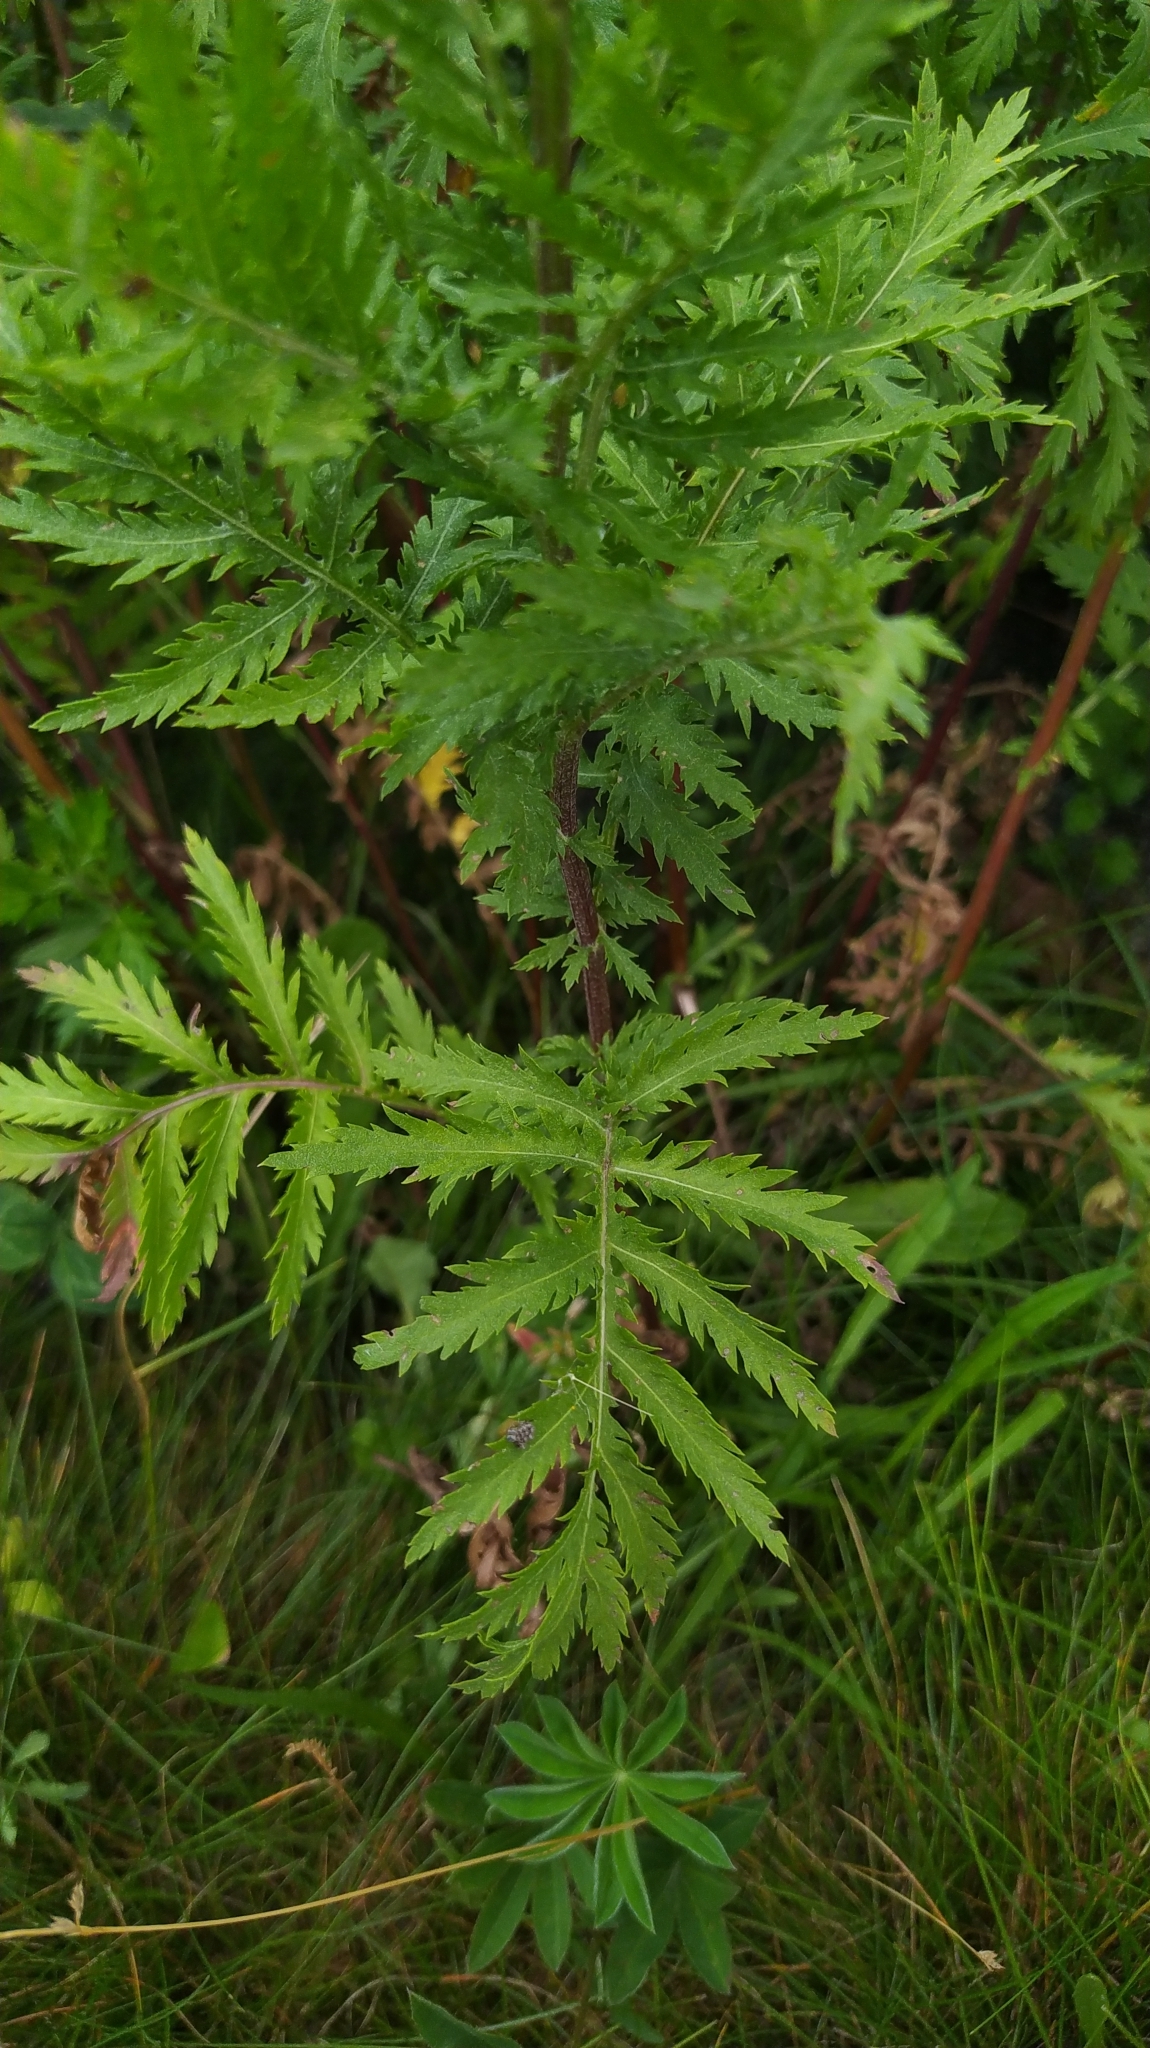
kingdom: Plantae
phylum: Tracheophyta
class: Magnoliopsida
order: Asterales
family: Asteraceae
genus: Tanacetum
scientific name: Tanacetum vulgare
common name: Common tansy
